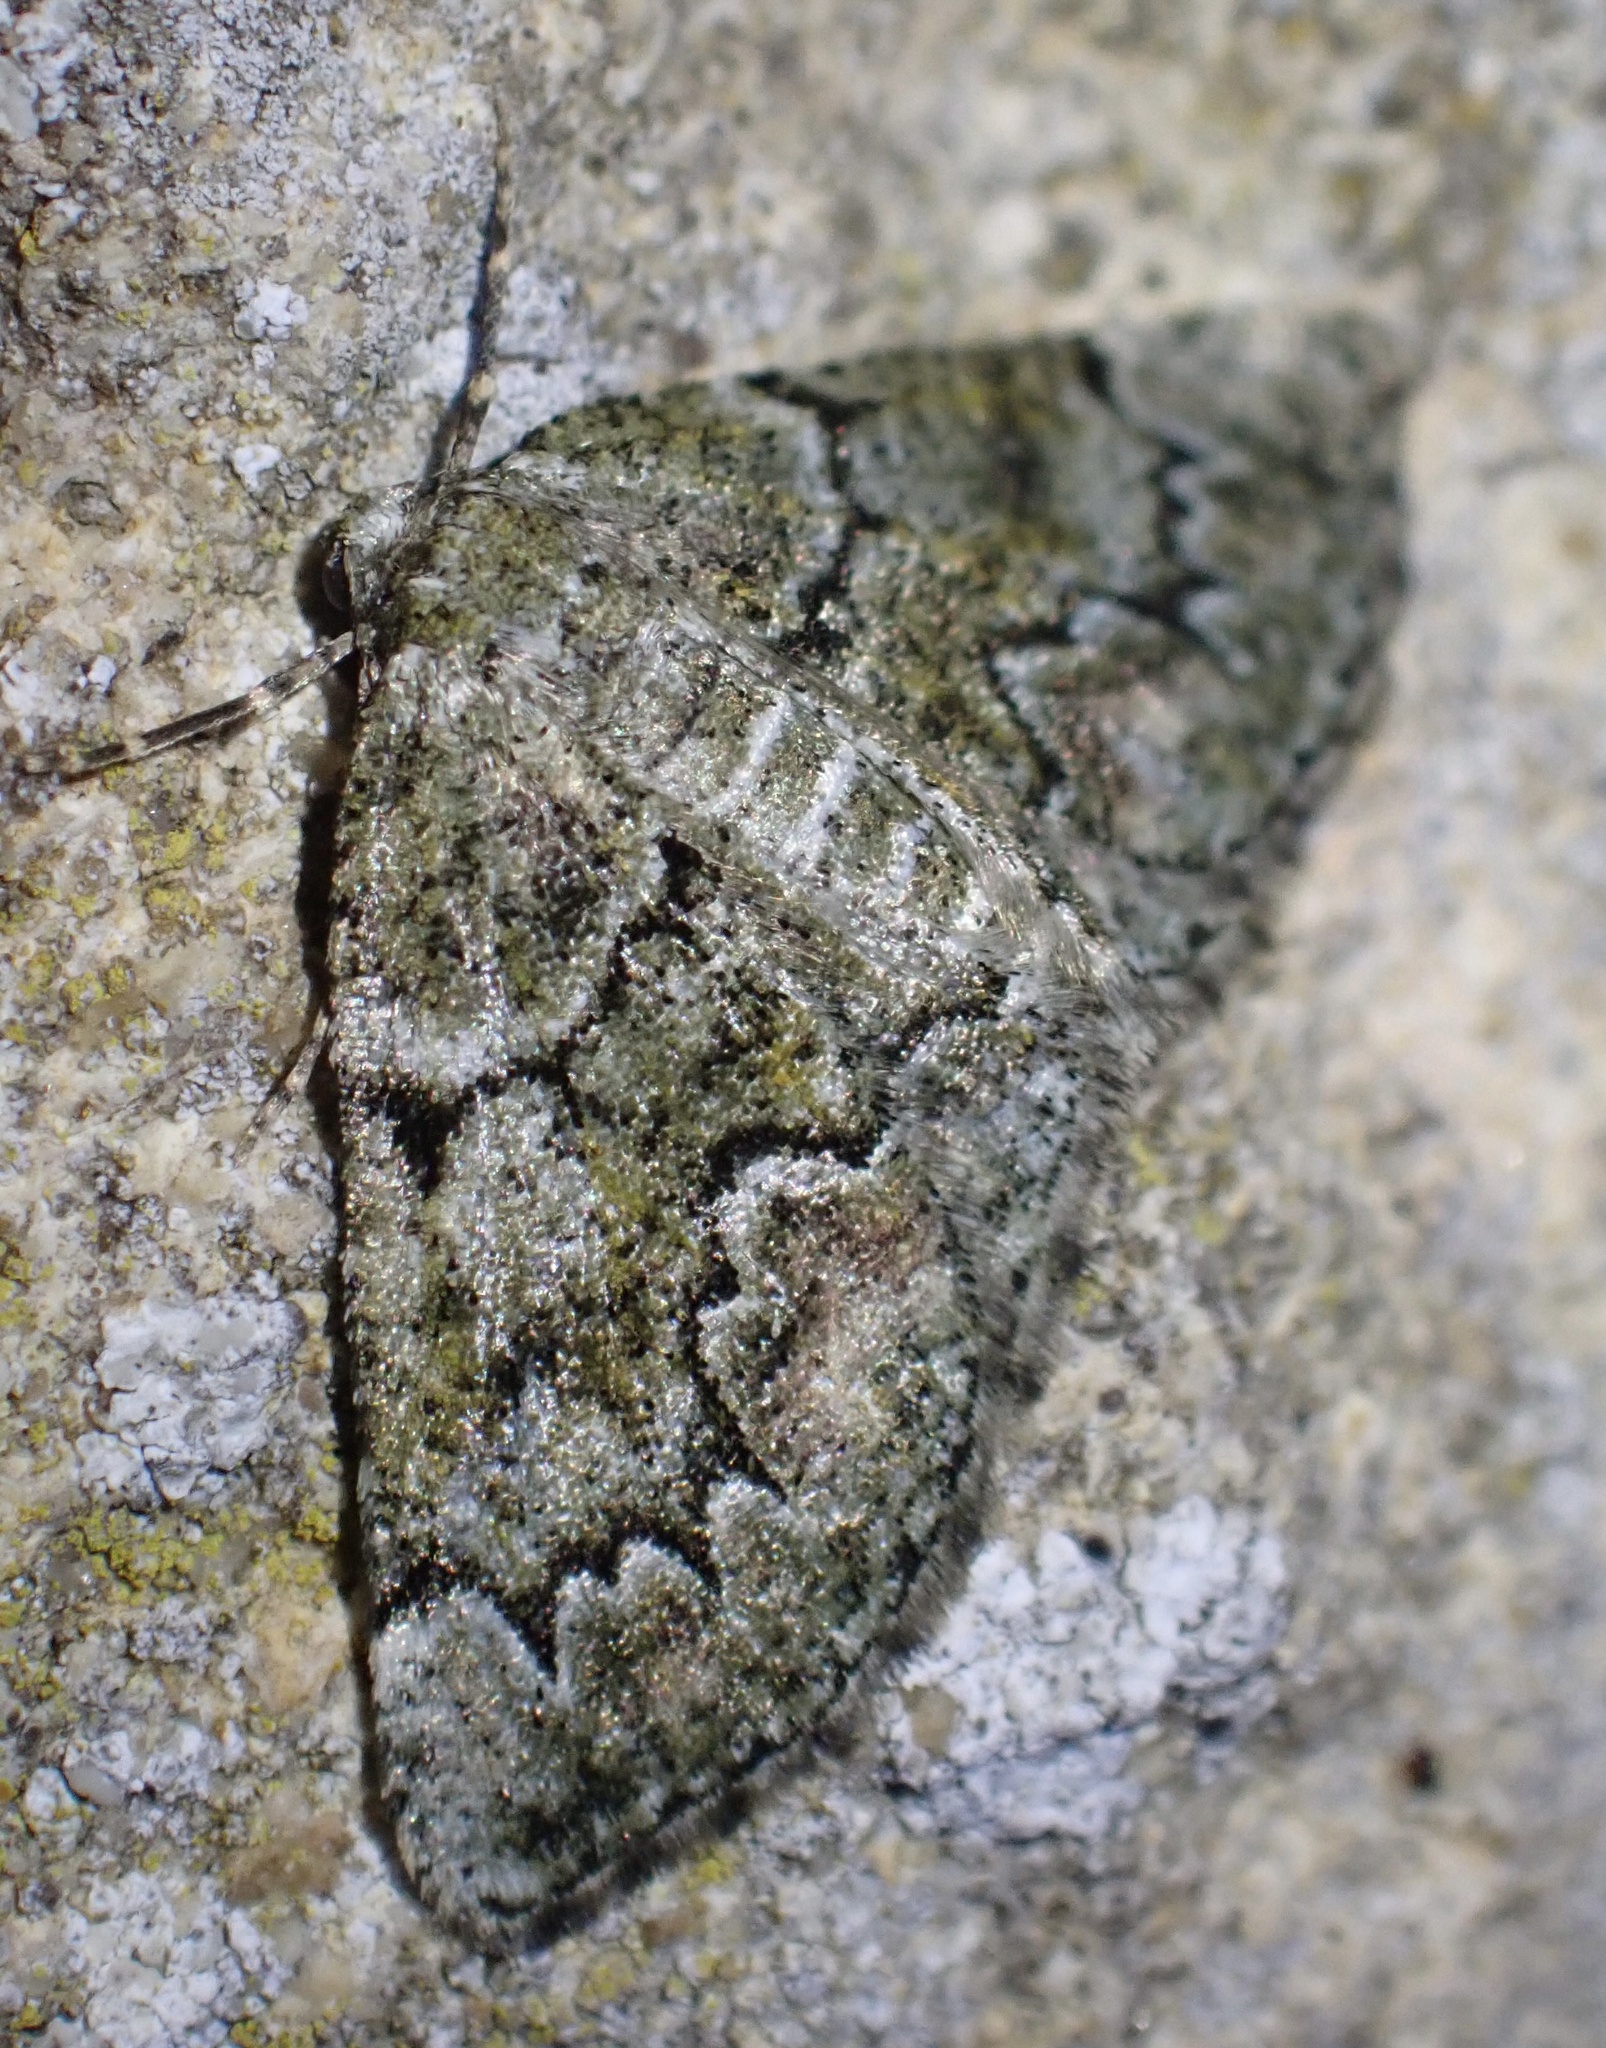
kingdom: Animalia
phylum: Arthropoda
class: Insecta
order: Lepidoptera
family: Geometridae
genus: Cleorodes
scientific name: Cleorodes lichenaria
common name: Brussels lace
